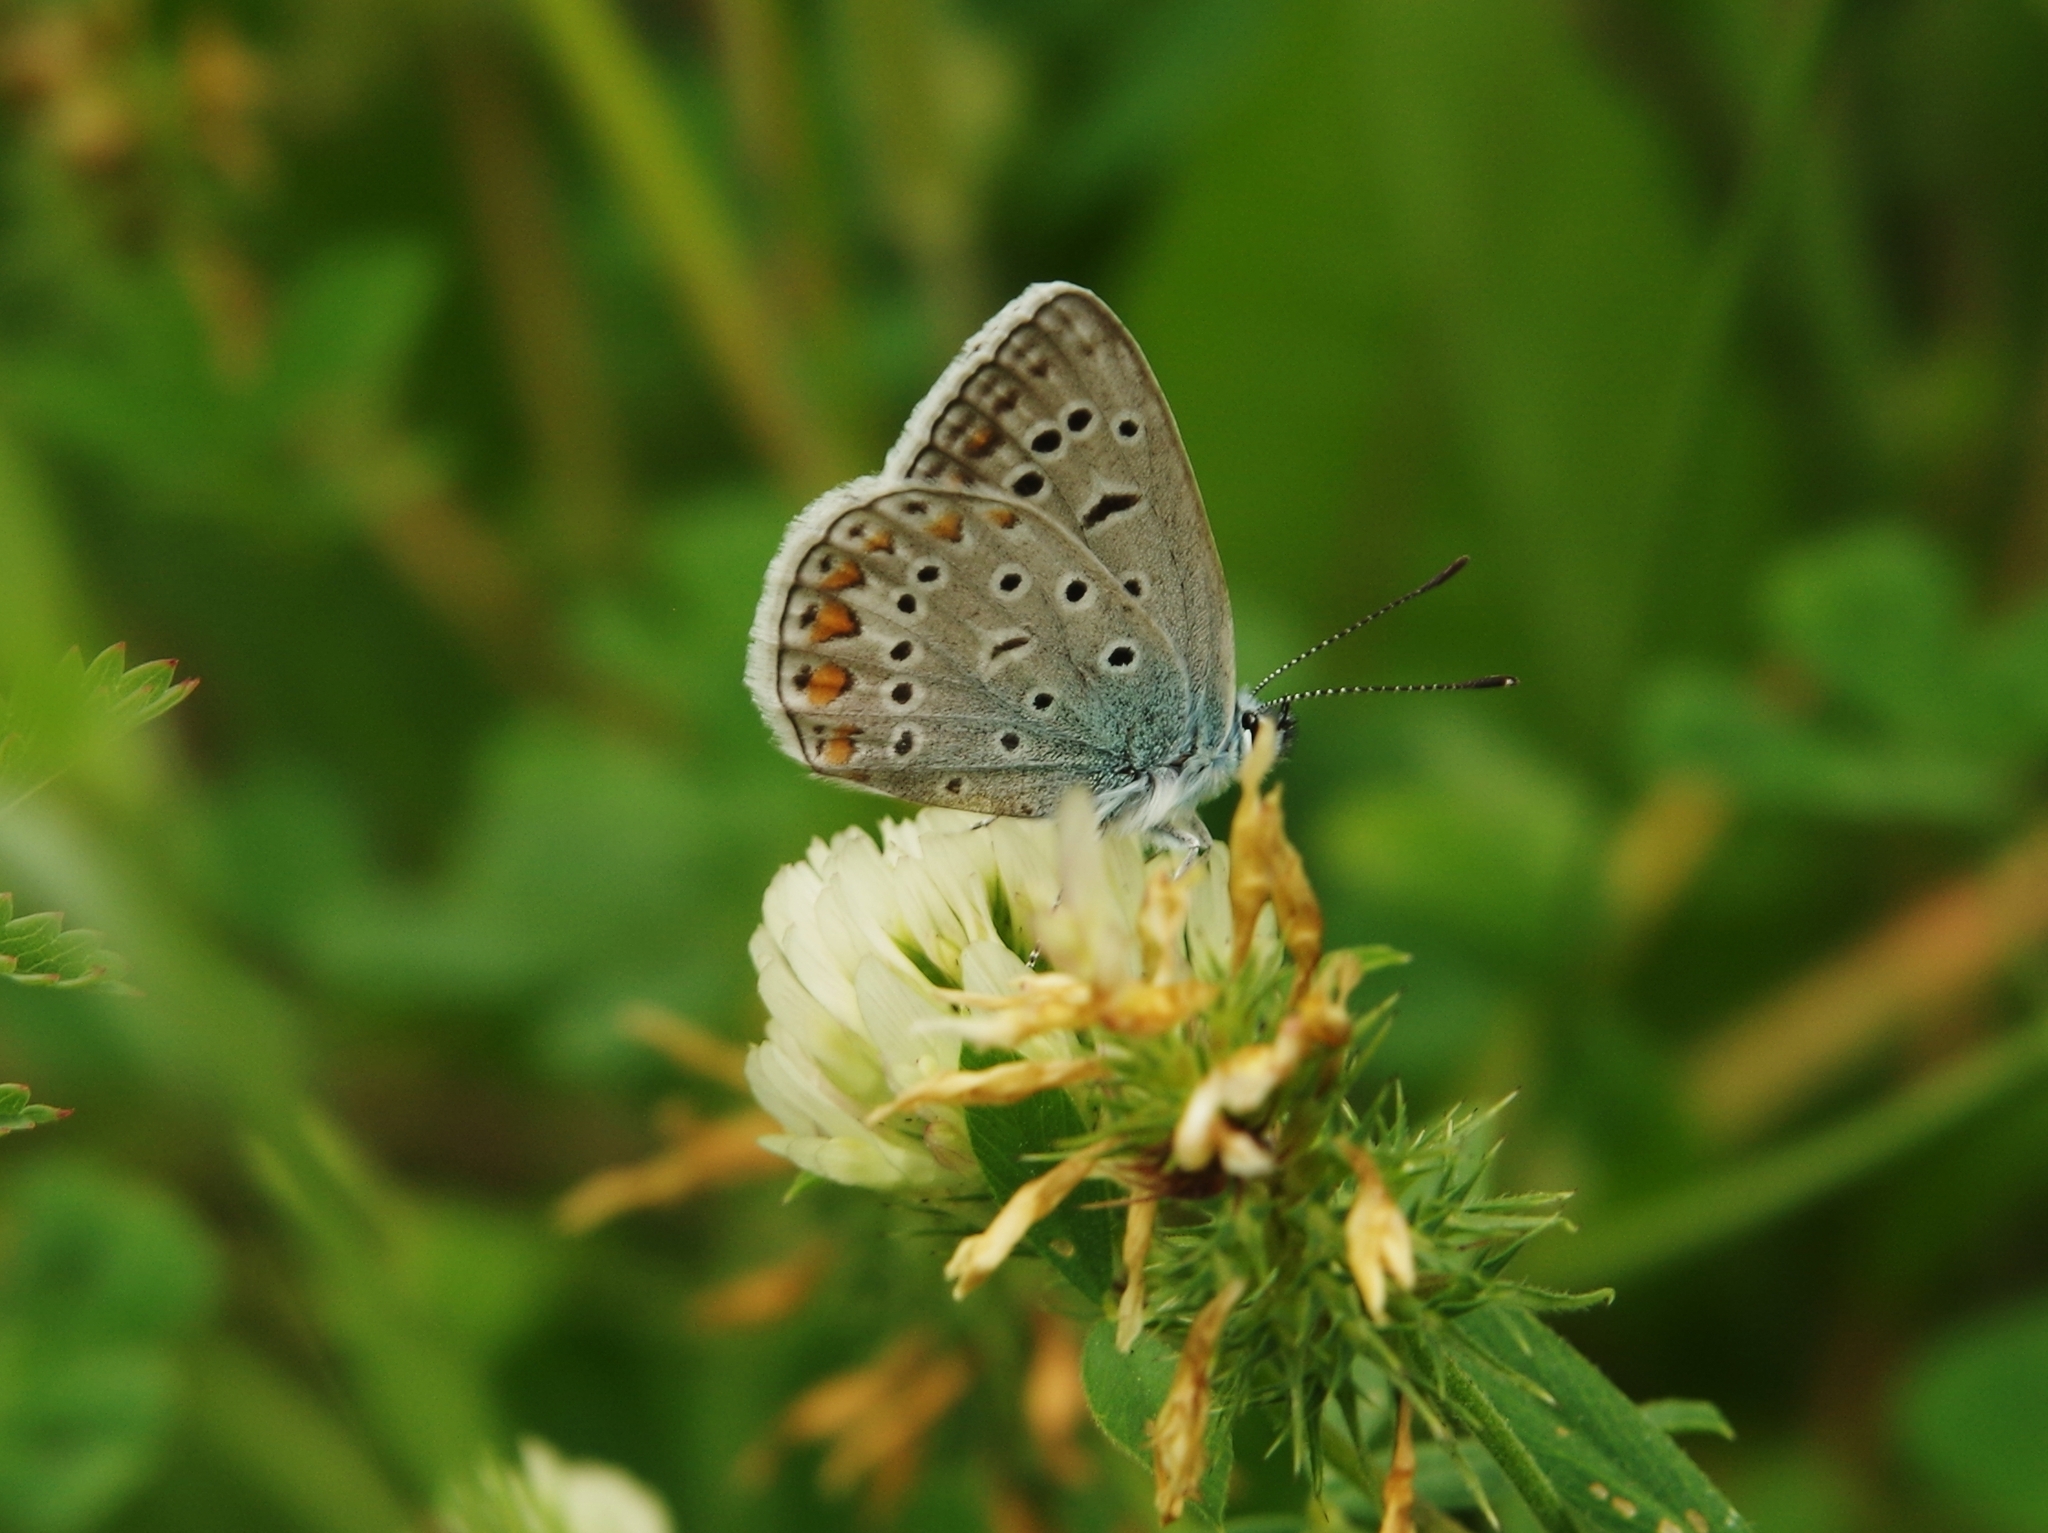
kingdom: Animalia
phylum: Arthropoda
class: Insecta
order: Lepidoptera
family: Lycaenidae
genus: Polyommatus
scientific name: Polyommatus icarus
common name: Common blue
